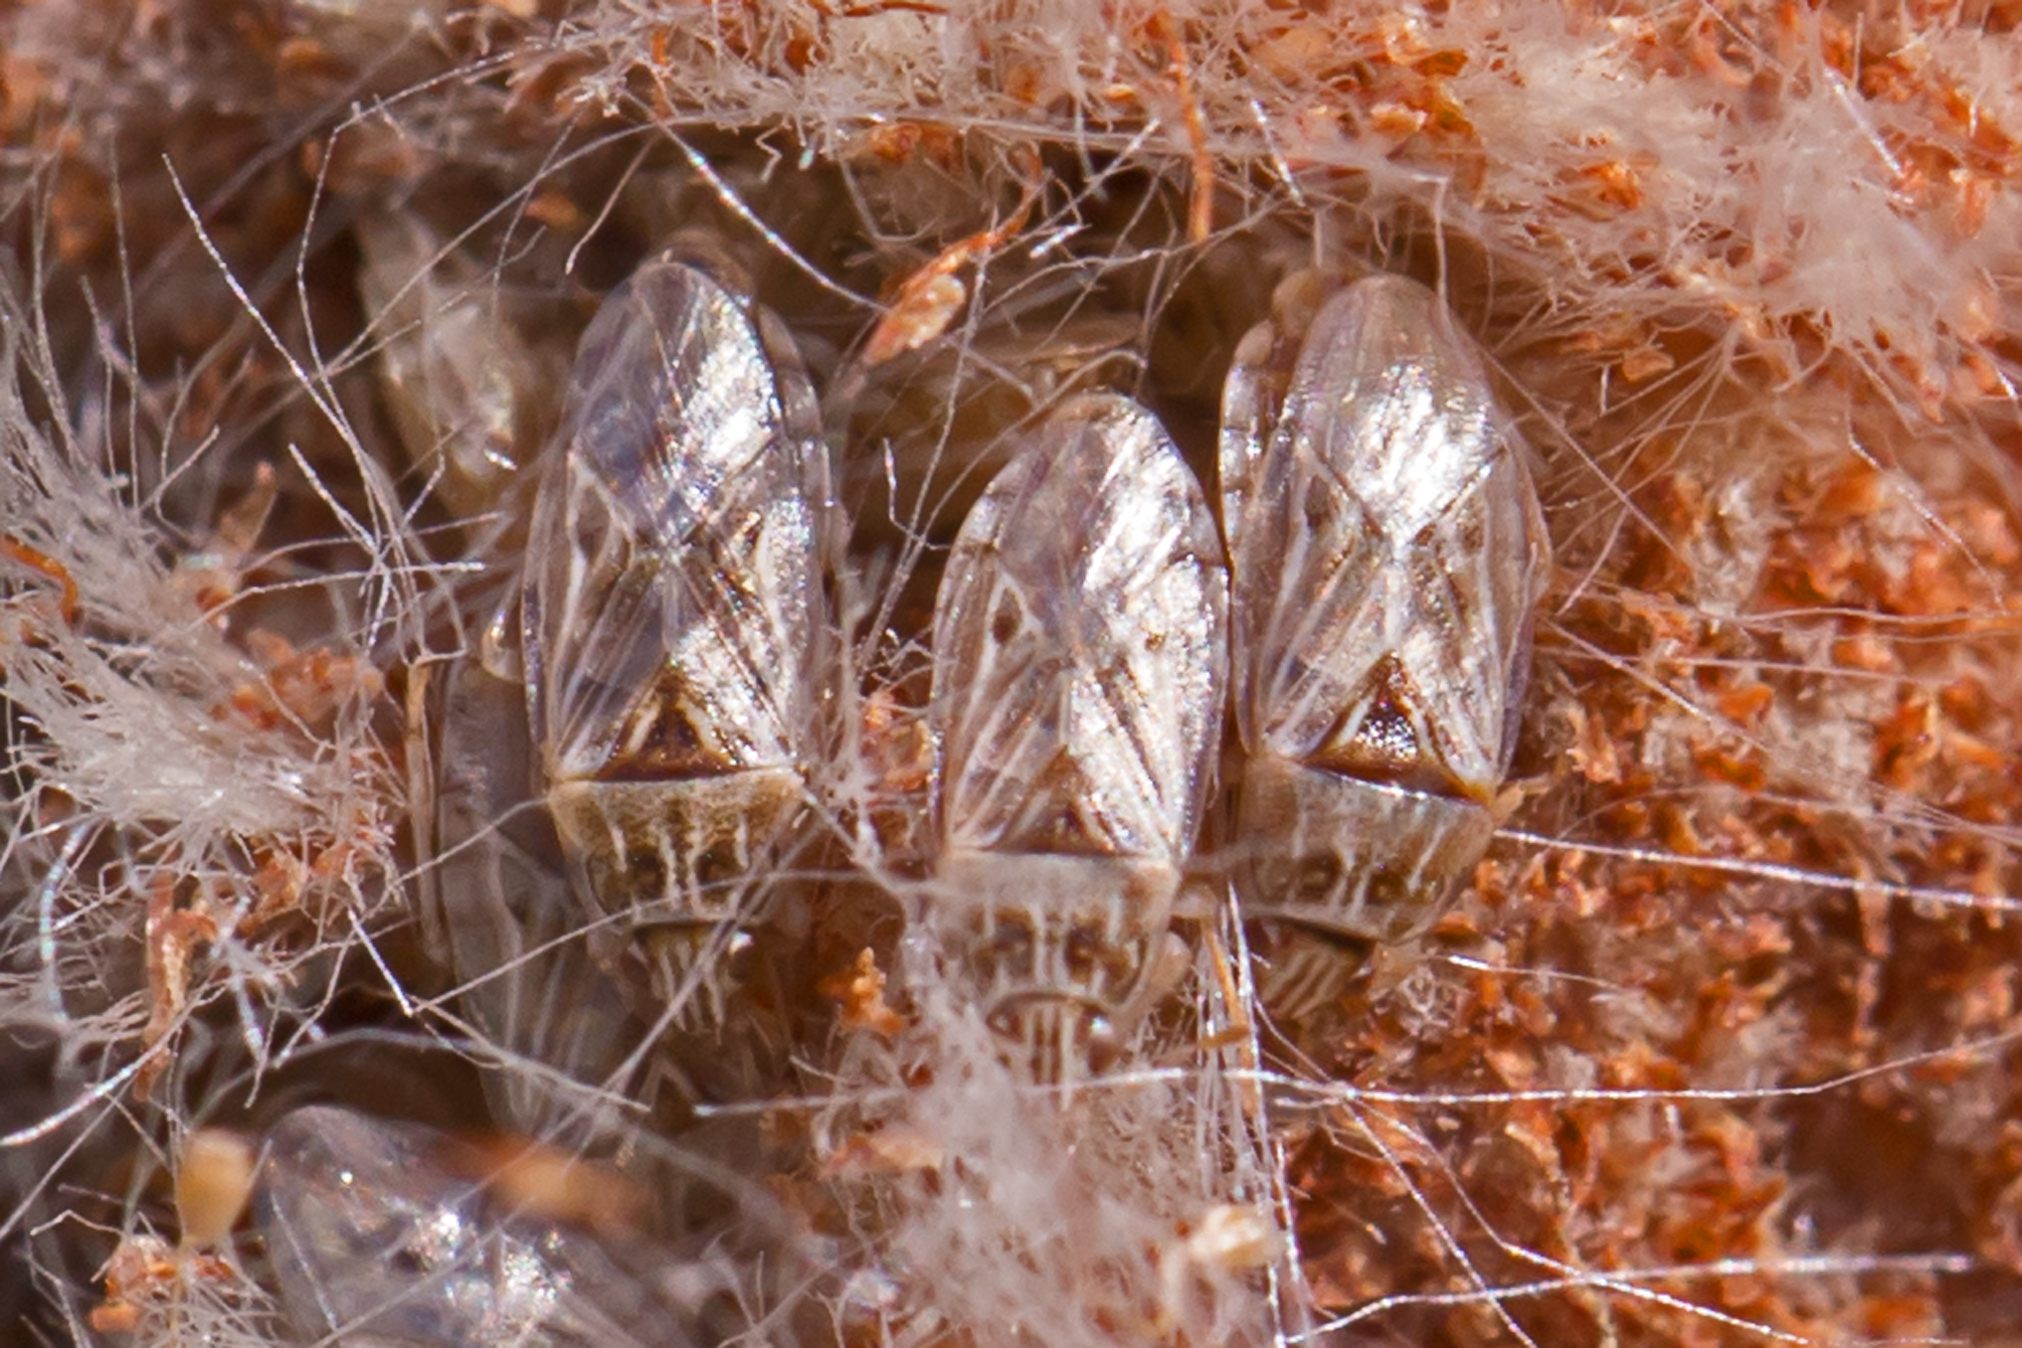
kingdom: Animalia
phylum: Arthropoda
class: Insecta
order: Hemiptera
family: Artheneidae
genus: Holcocranum
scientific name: Holcocranum saturejae
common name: Cattail bug
